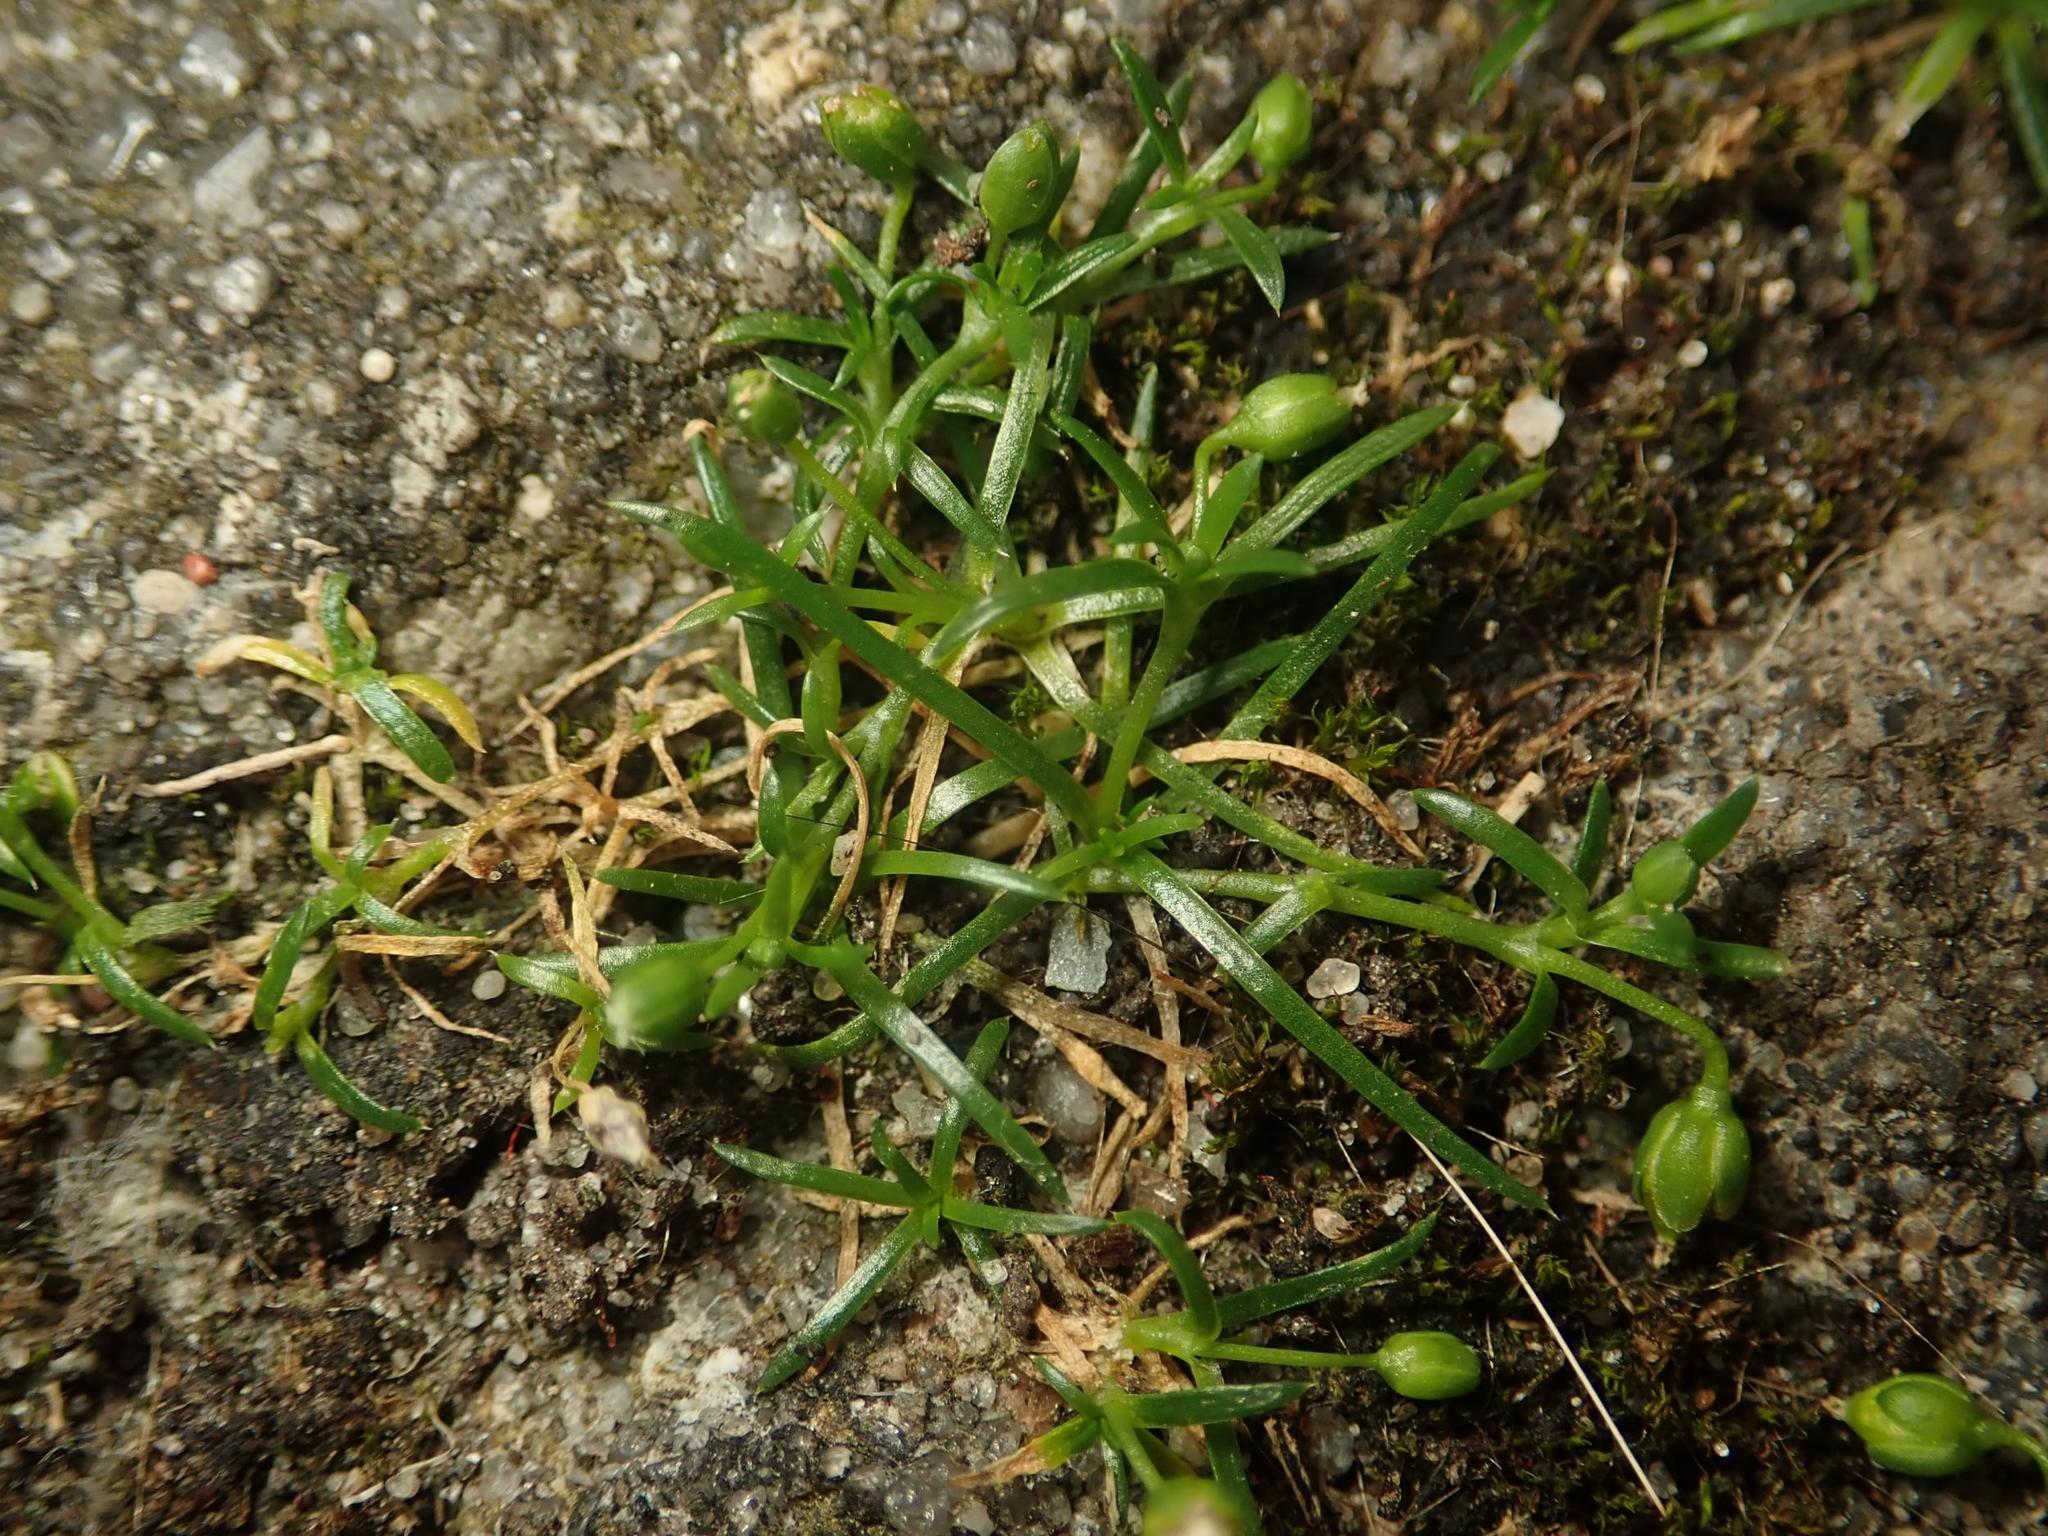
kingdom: Plantae
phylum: Tracheophyta
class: Magnoliopsida
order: Caryophyllales
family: Caryophyllaceae
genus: Sagina
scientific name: Sagina procumbens
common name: Procumbent pearlwort
